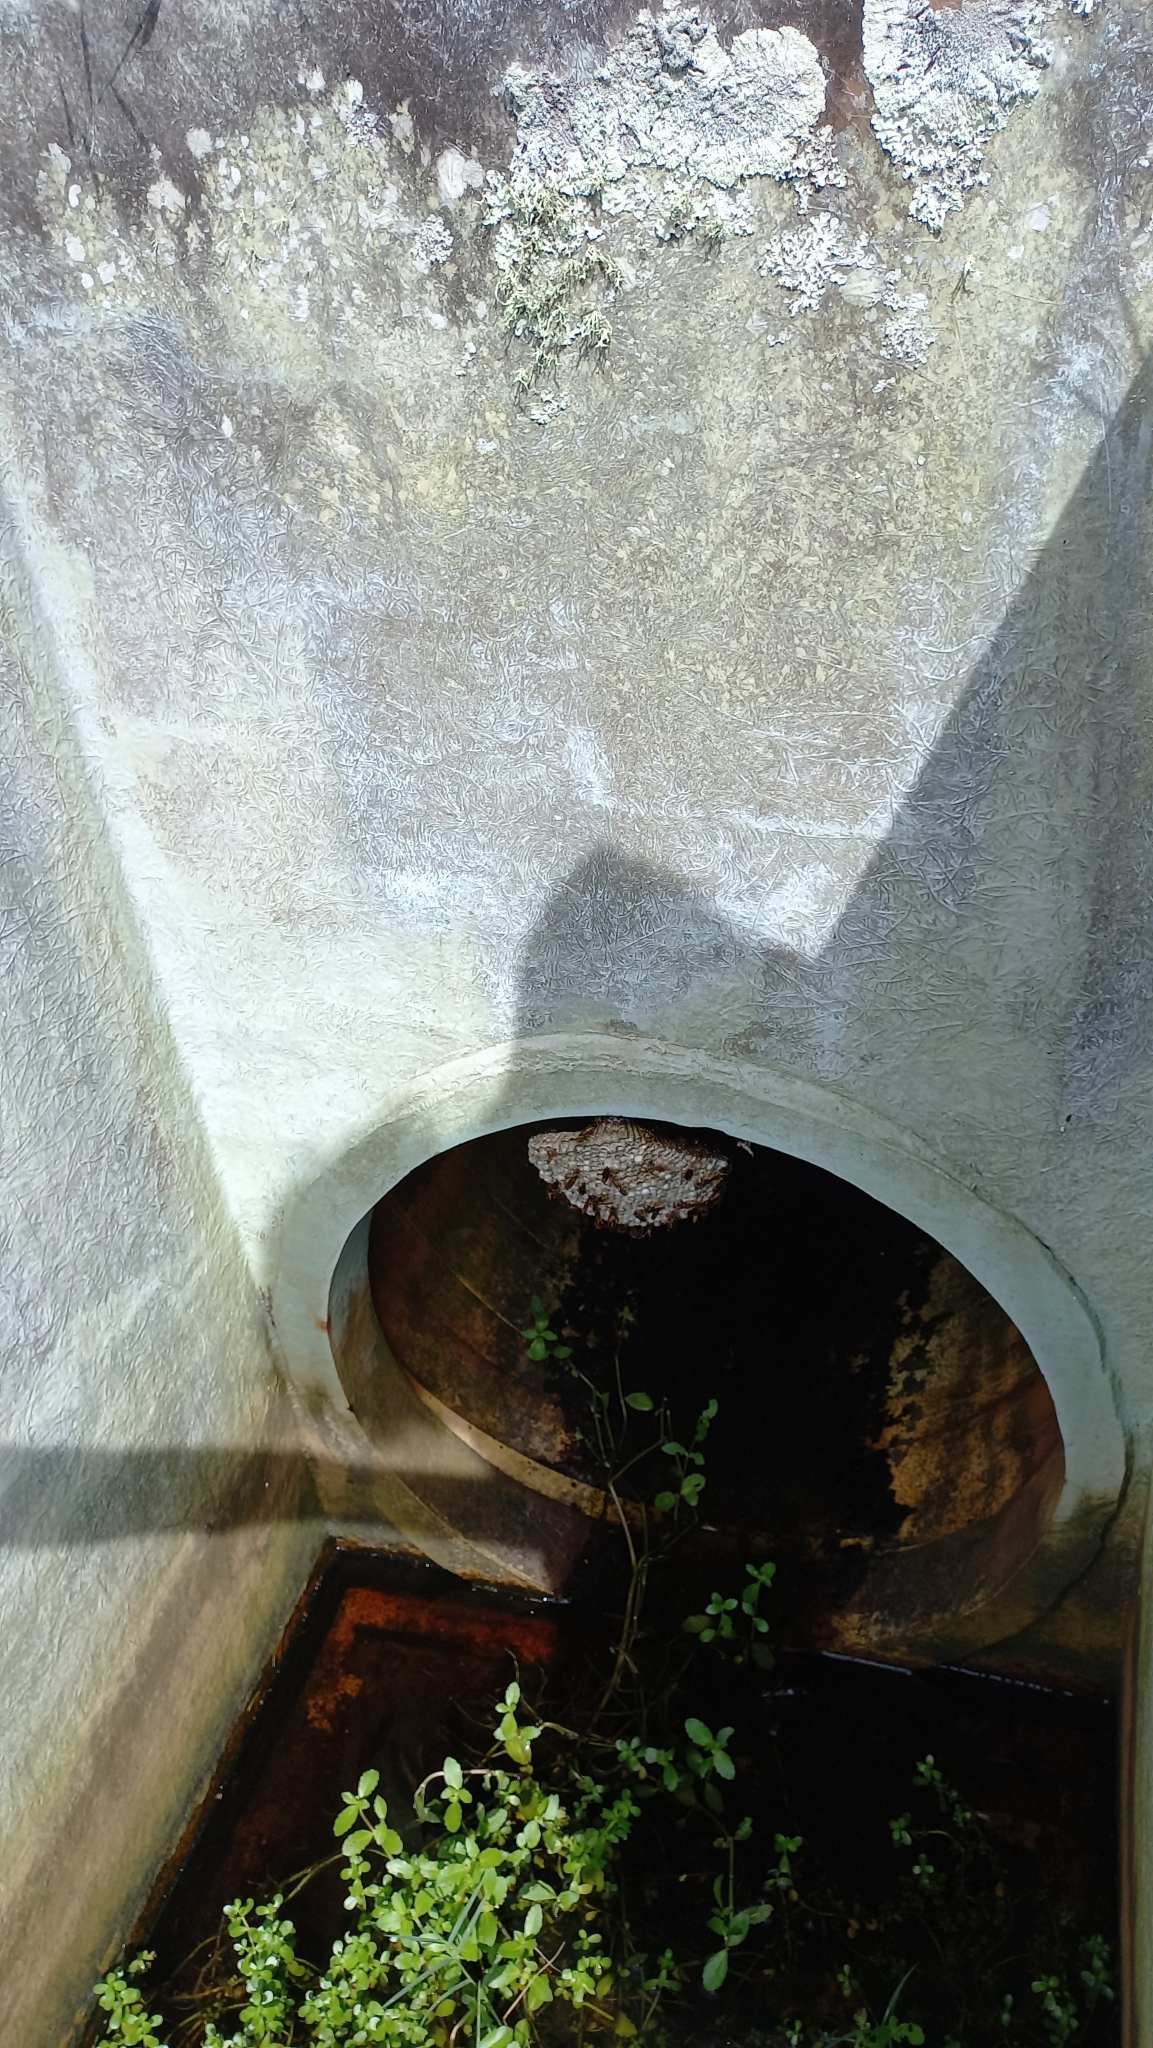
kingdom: Animalia
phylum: Arthropoda
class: Insecta
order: Hymenoptera
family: Eumenidae
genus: Polistes
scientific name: Polistes cavapytiformis
